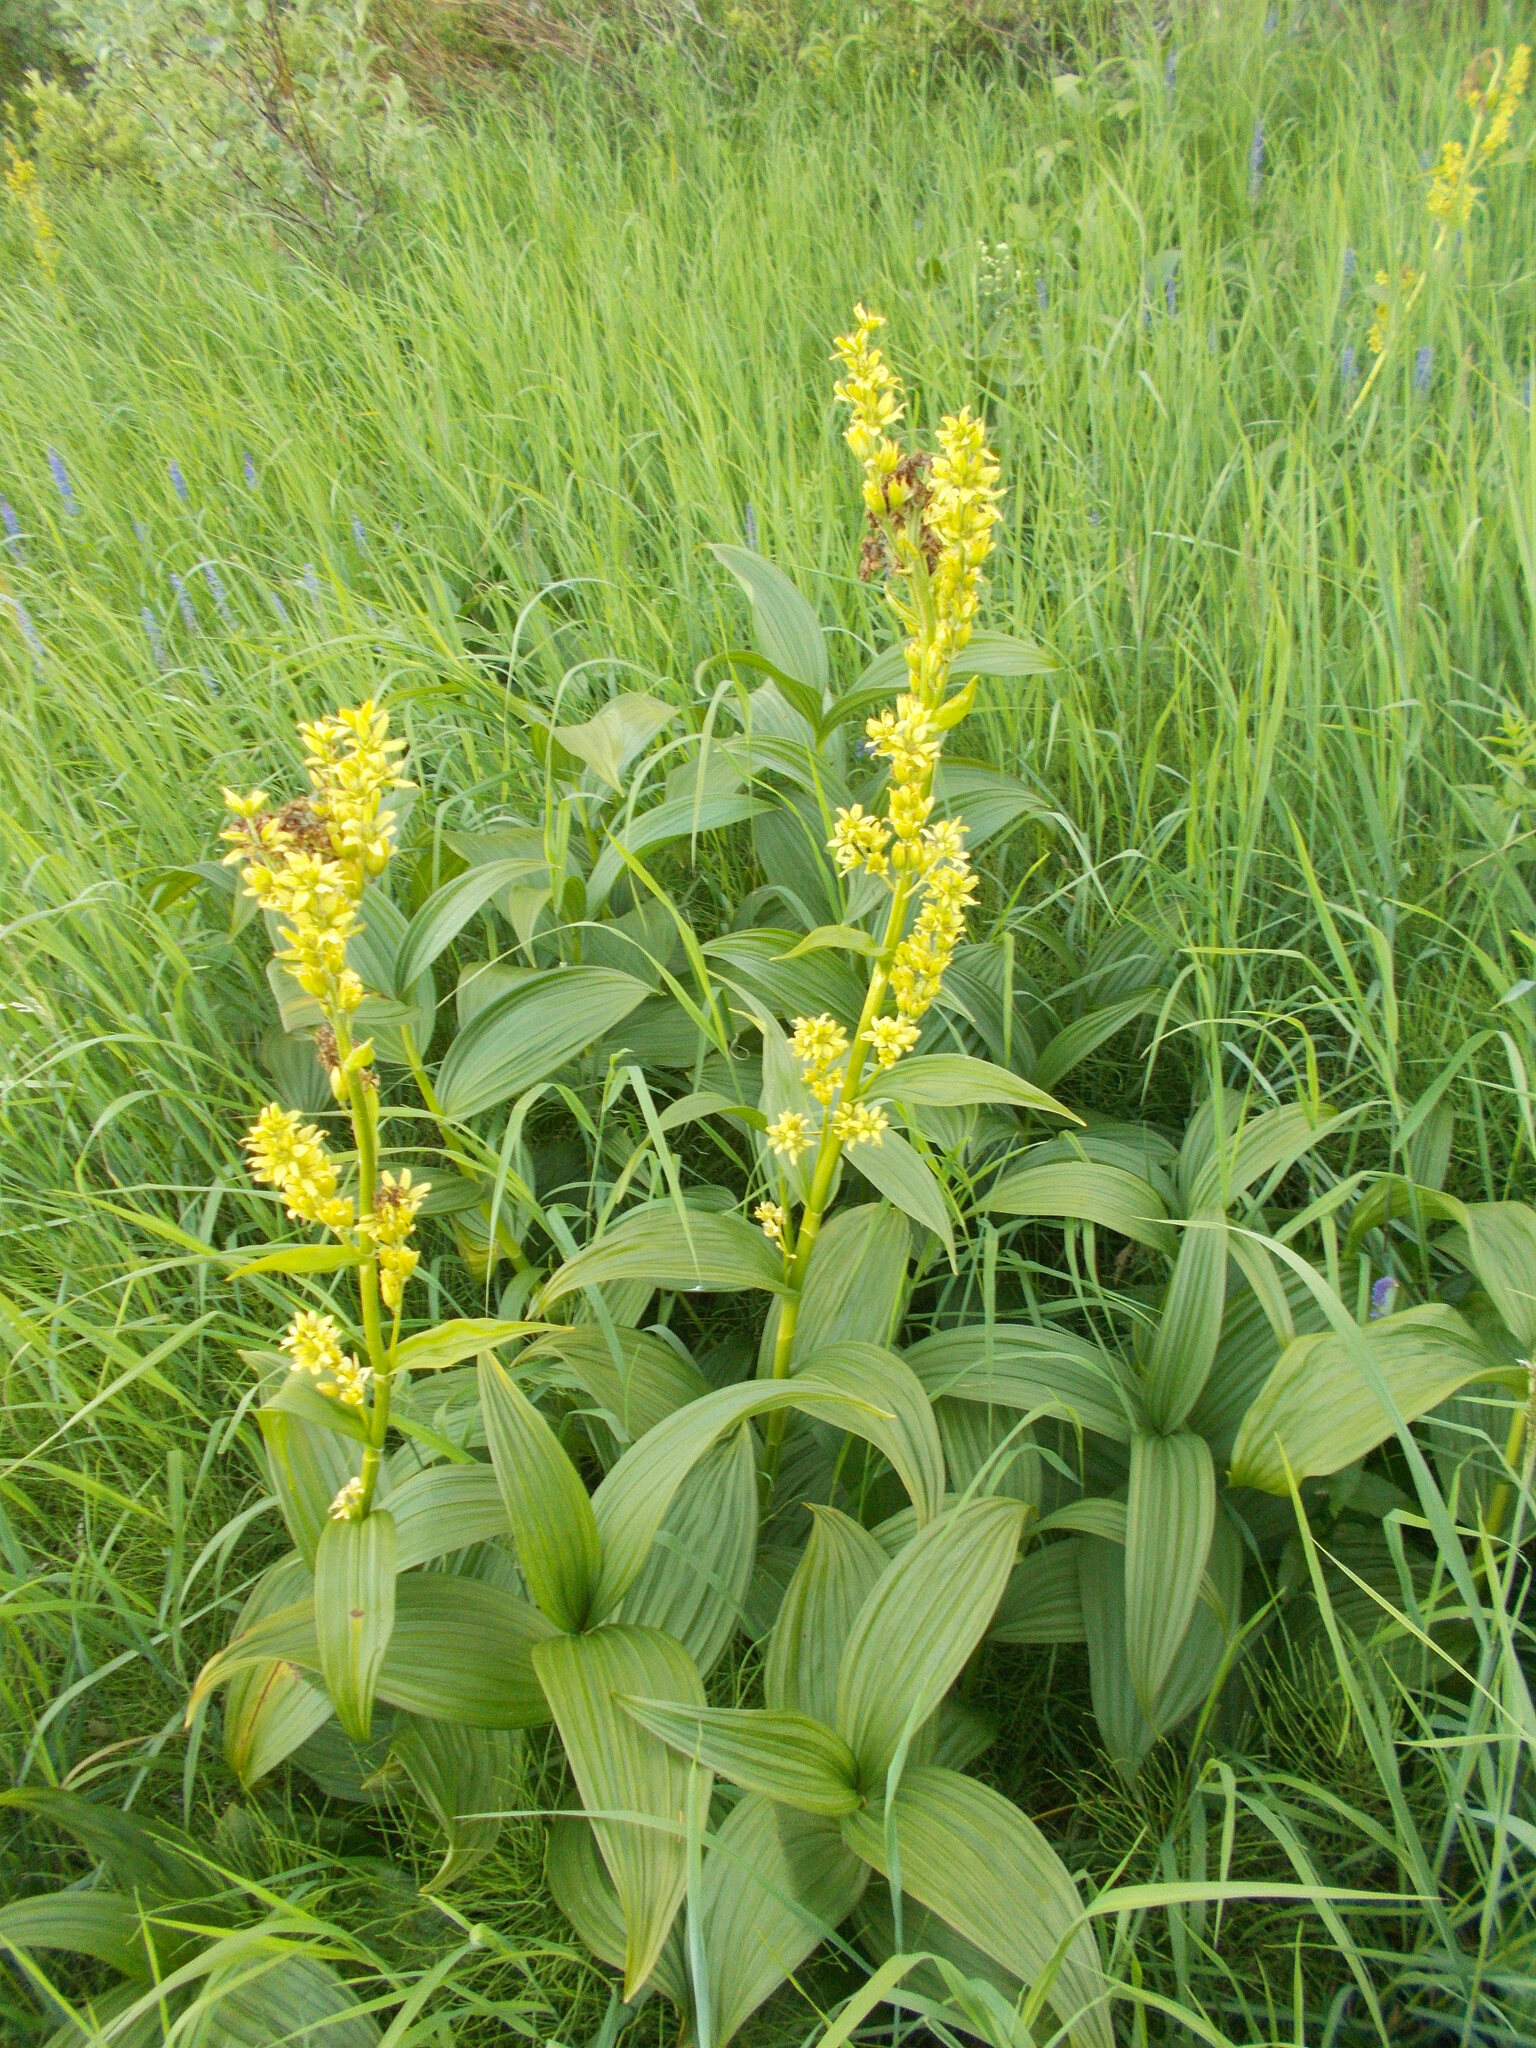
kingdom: Plantae
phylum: Tracheophyta
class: Liliopsida
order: Liliales
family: Melanthiaceae
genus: Veratrum
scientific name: Veratrum lobelianum
